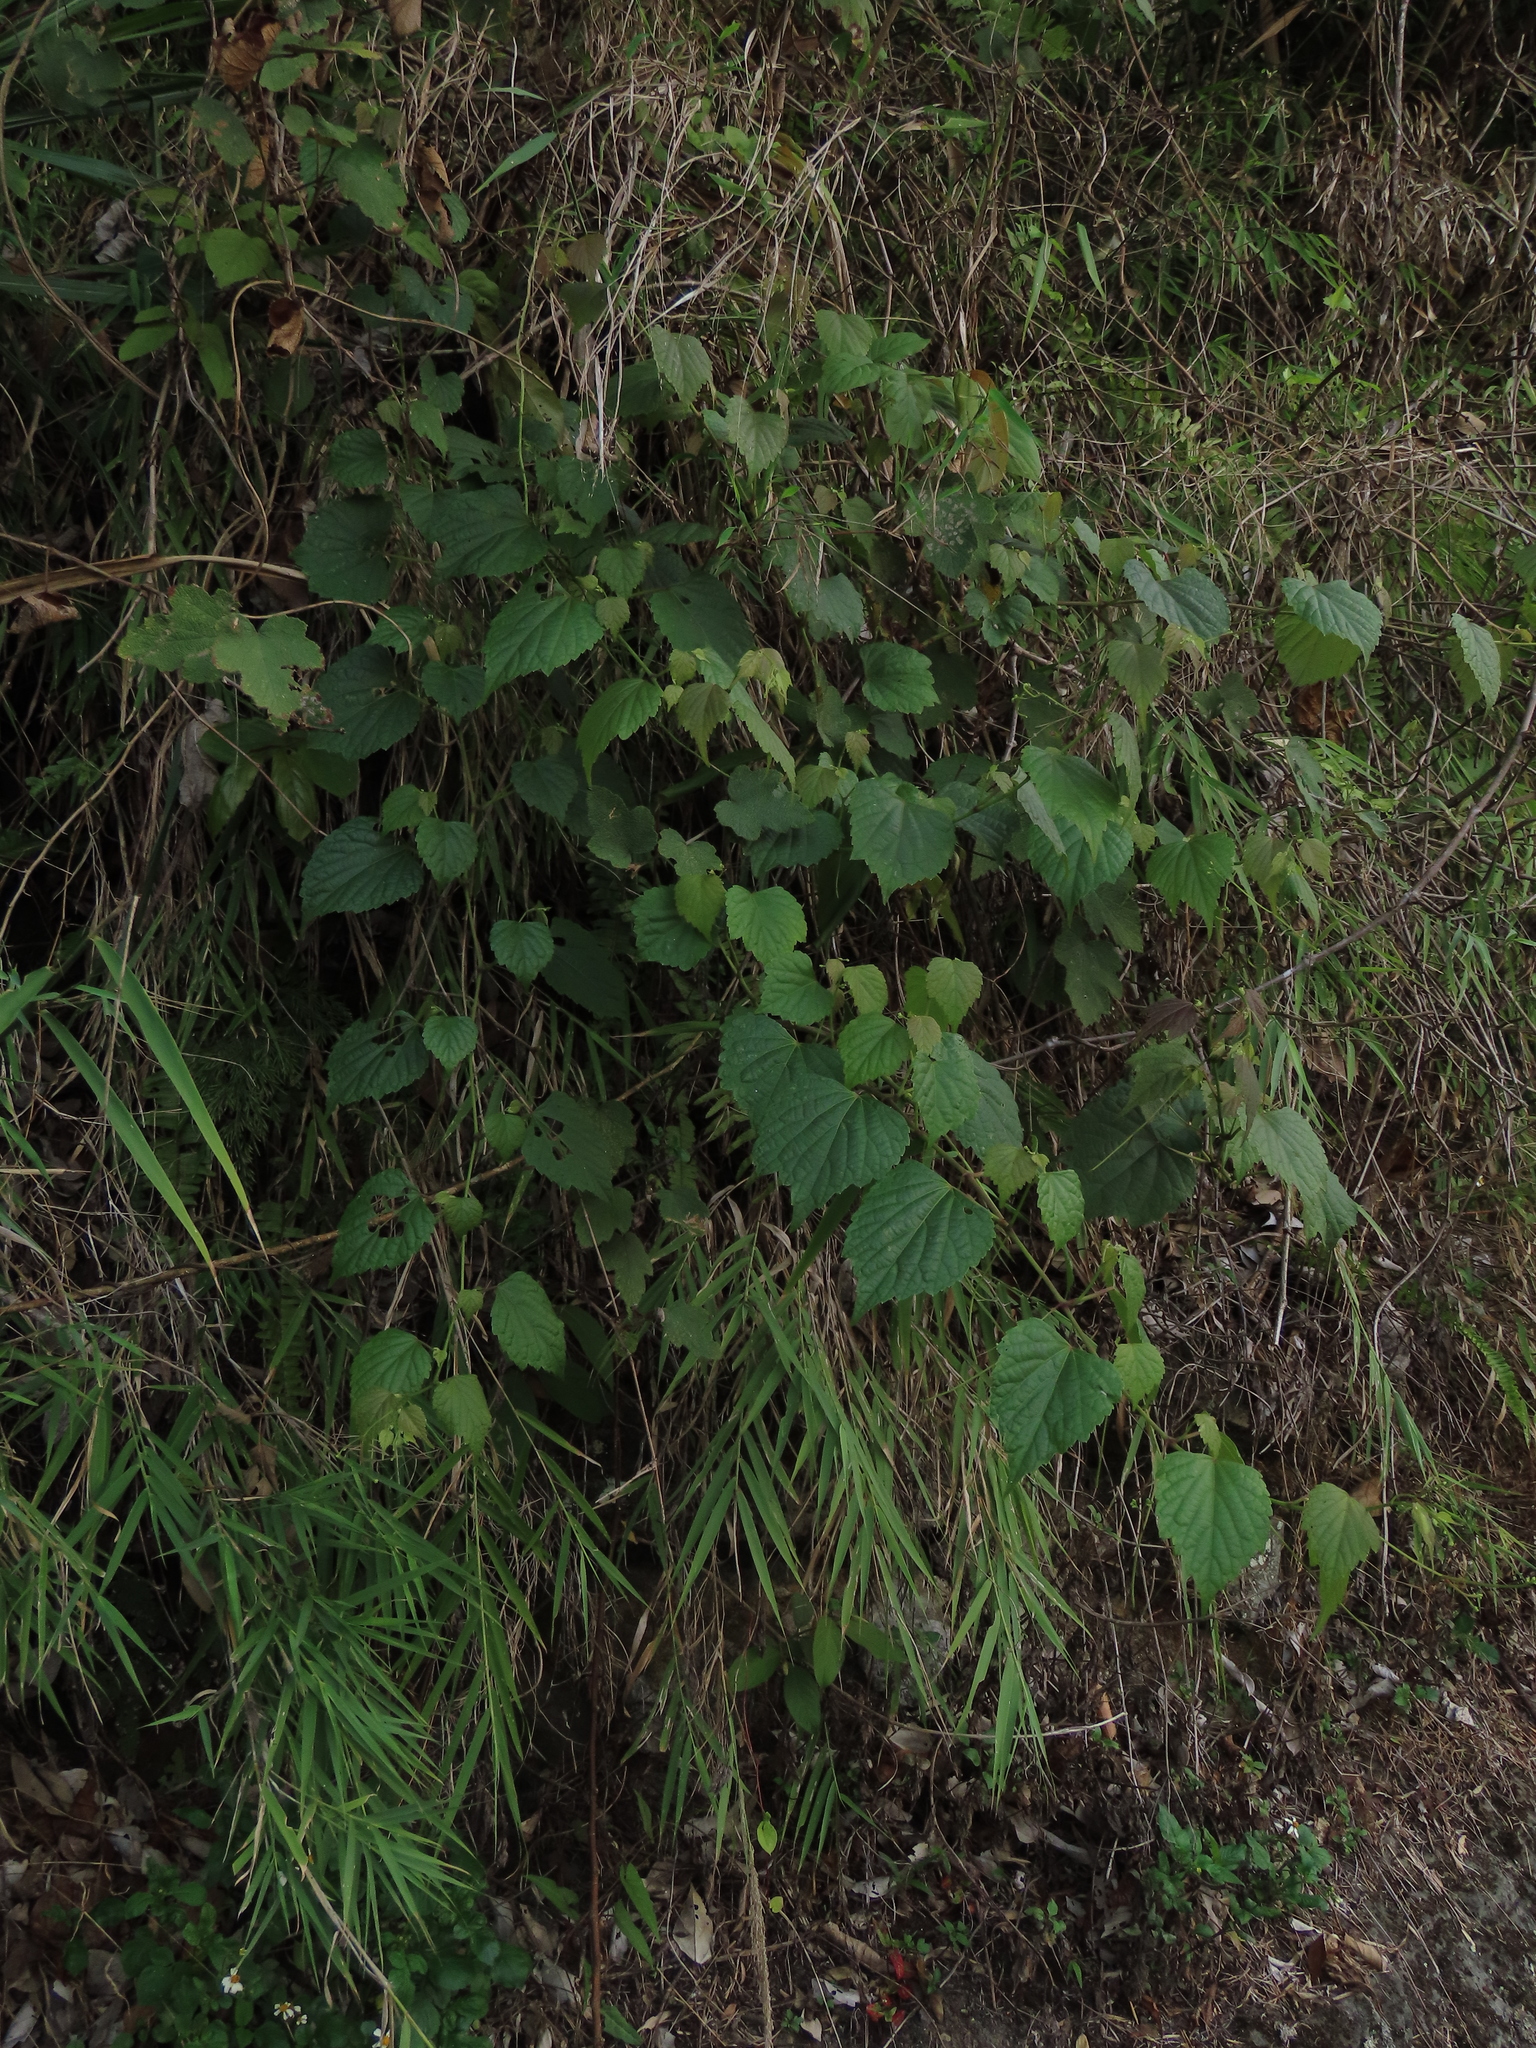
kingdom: Plantae
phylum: Tracheophyta
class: Magnoliopsida
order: Vitales
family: Vitaceae
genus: Ampelopsis
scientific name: Ampelopsis glandulosa
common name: Amur peppervine
